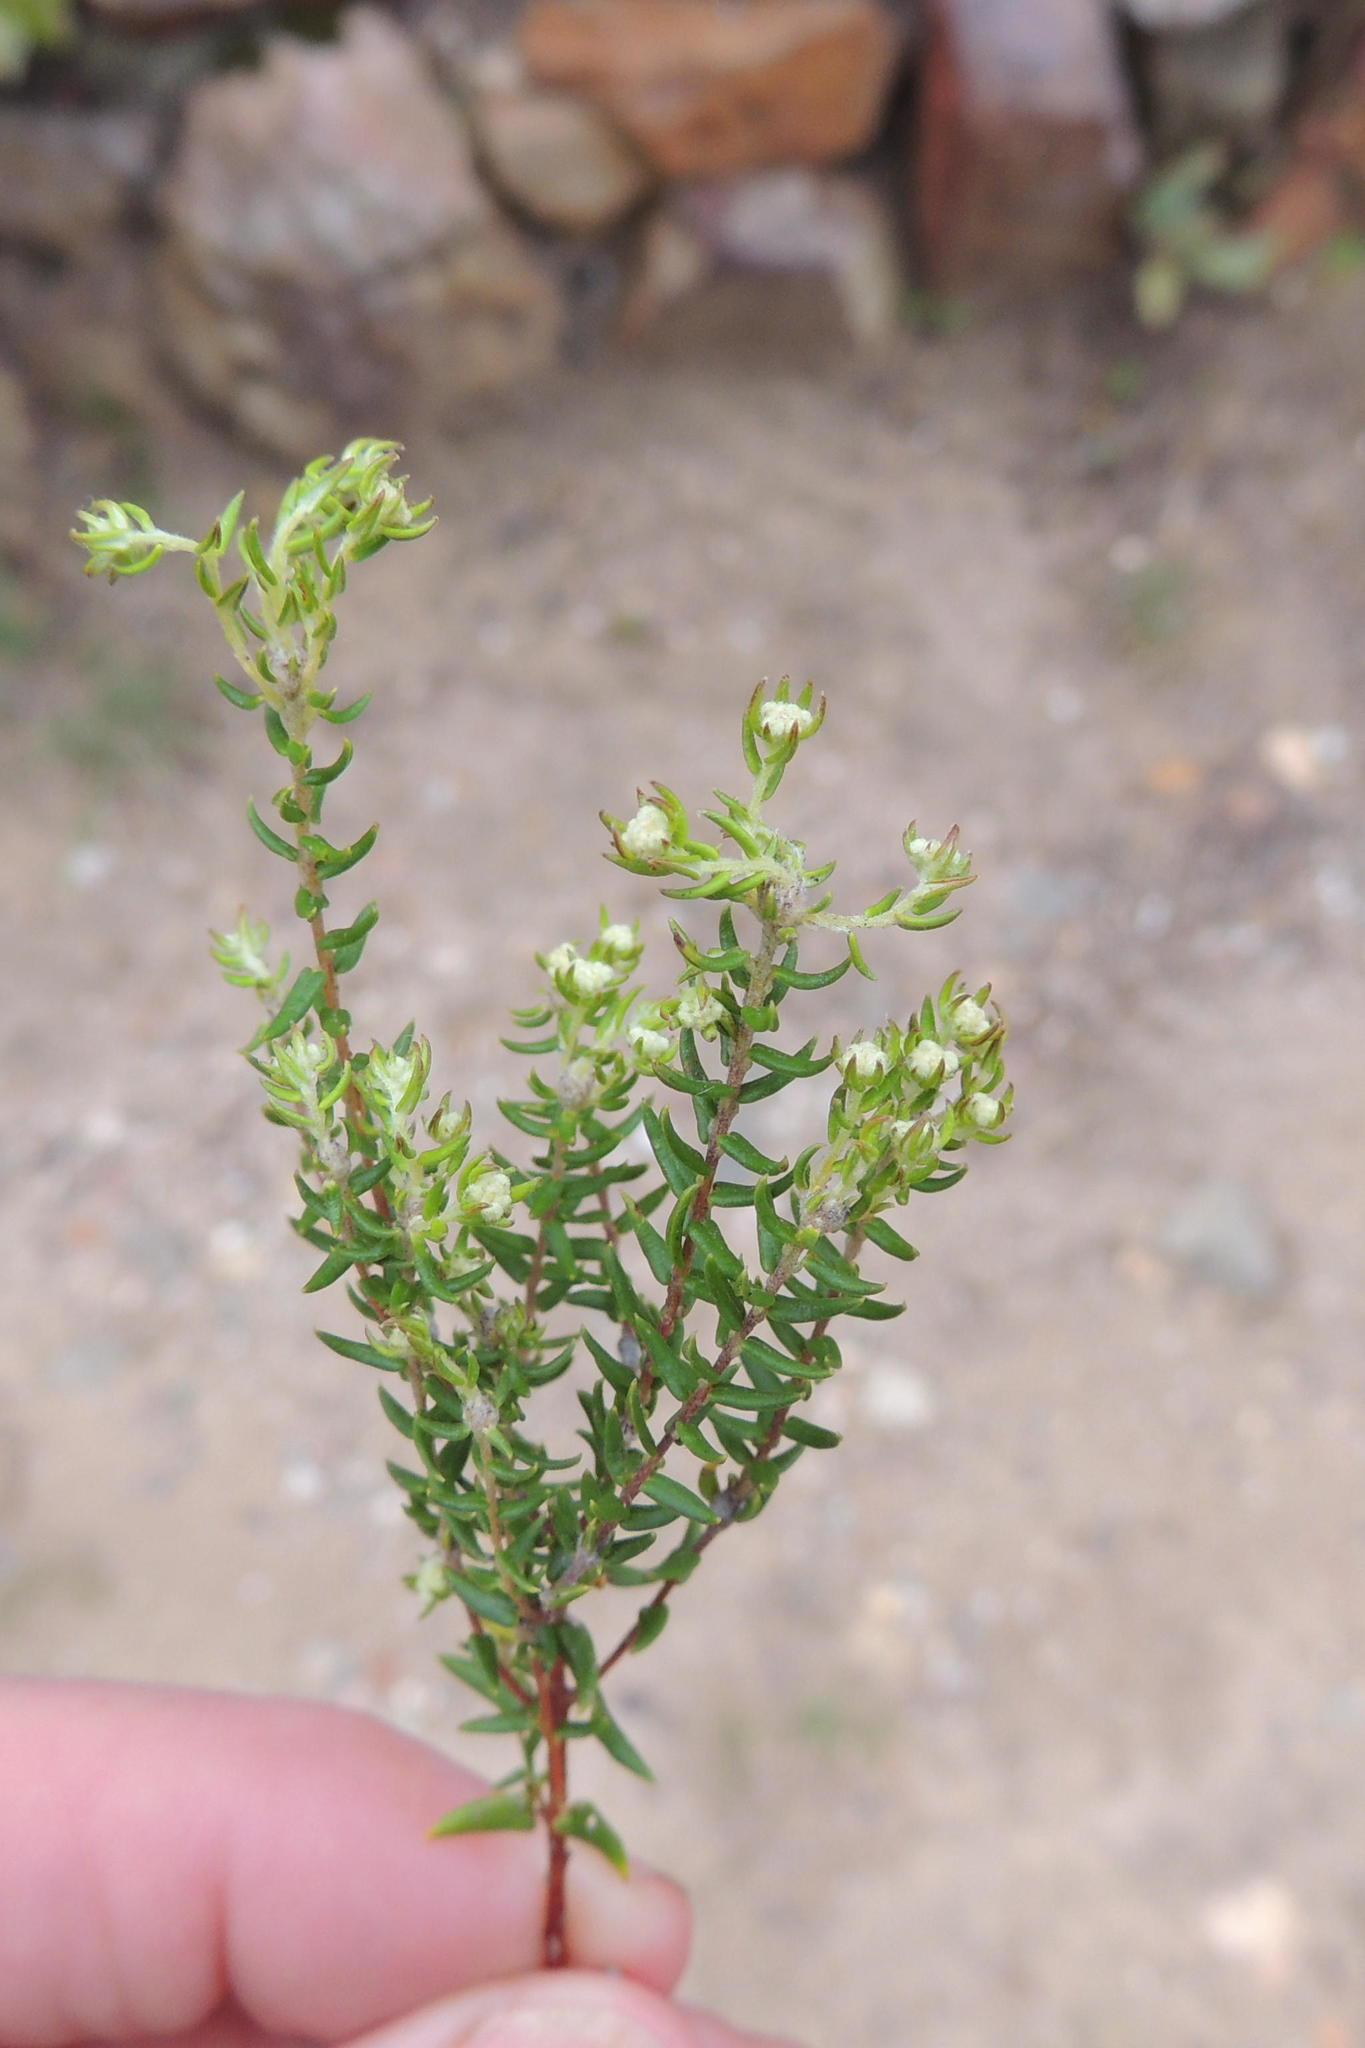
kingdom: Plantae
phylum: Tracheophyta
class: Magnoliopsida
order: Rosales
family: Rhamnaceae
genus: Phylica
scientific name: Phylica alba
